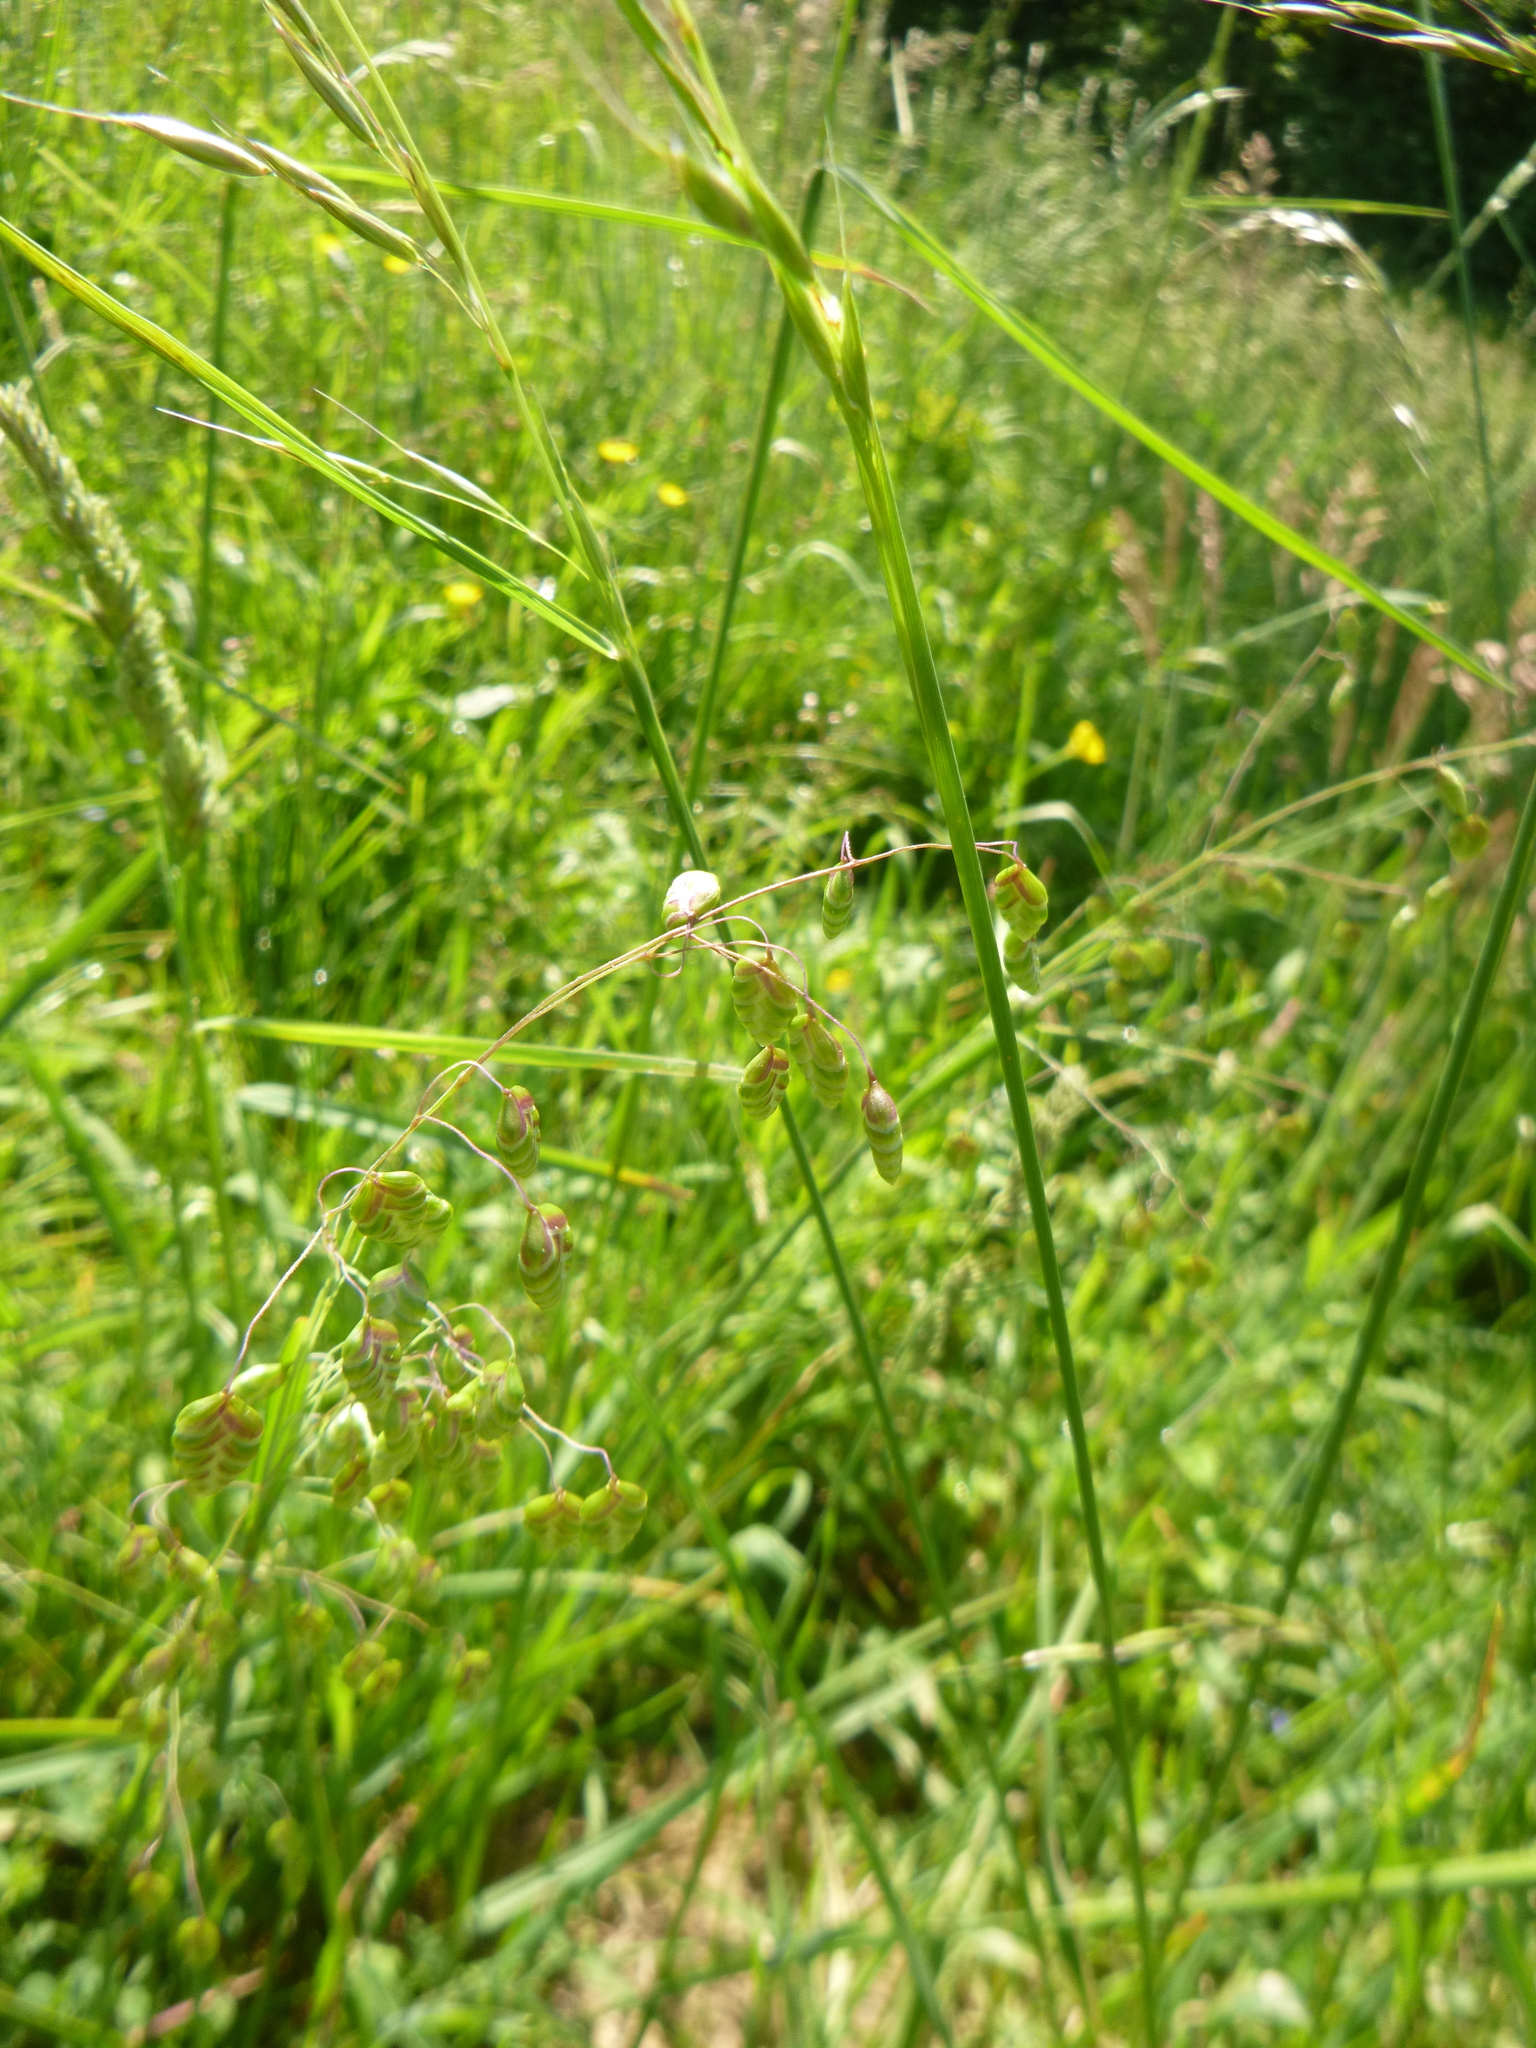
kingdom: Plantae
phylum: Tracheophyta
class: Liliopsida
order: Poales
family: Poaceae
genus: Briza
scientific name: Briza media
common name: Quaking grass
